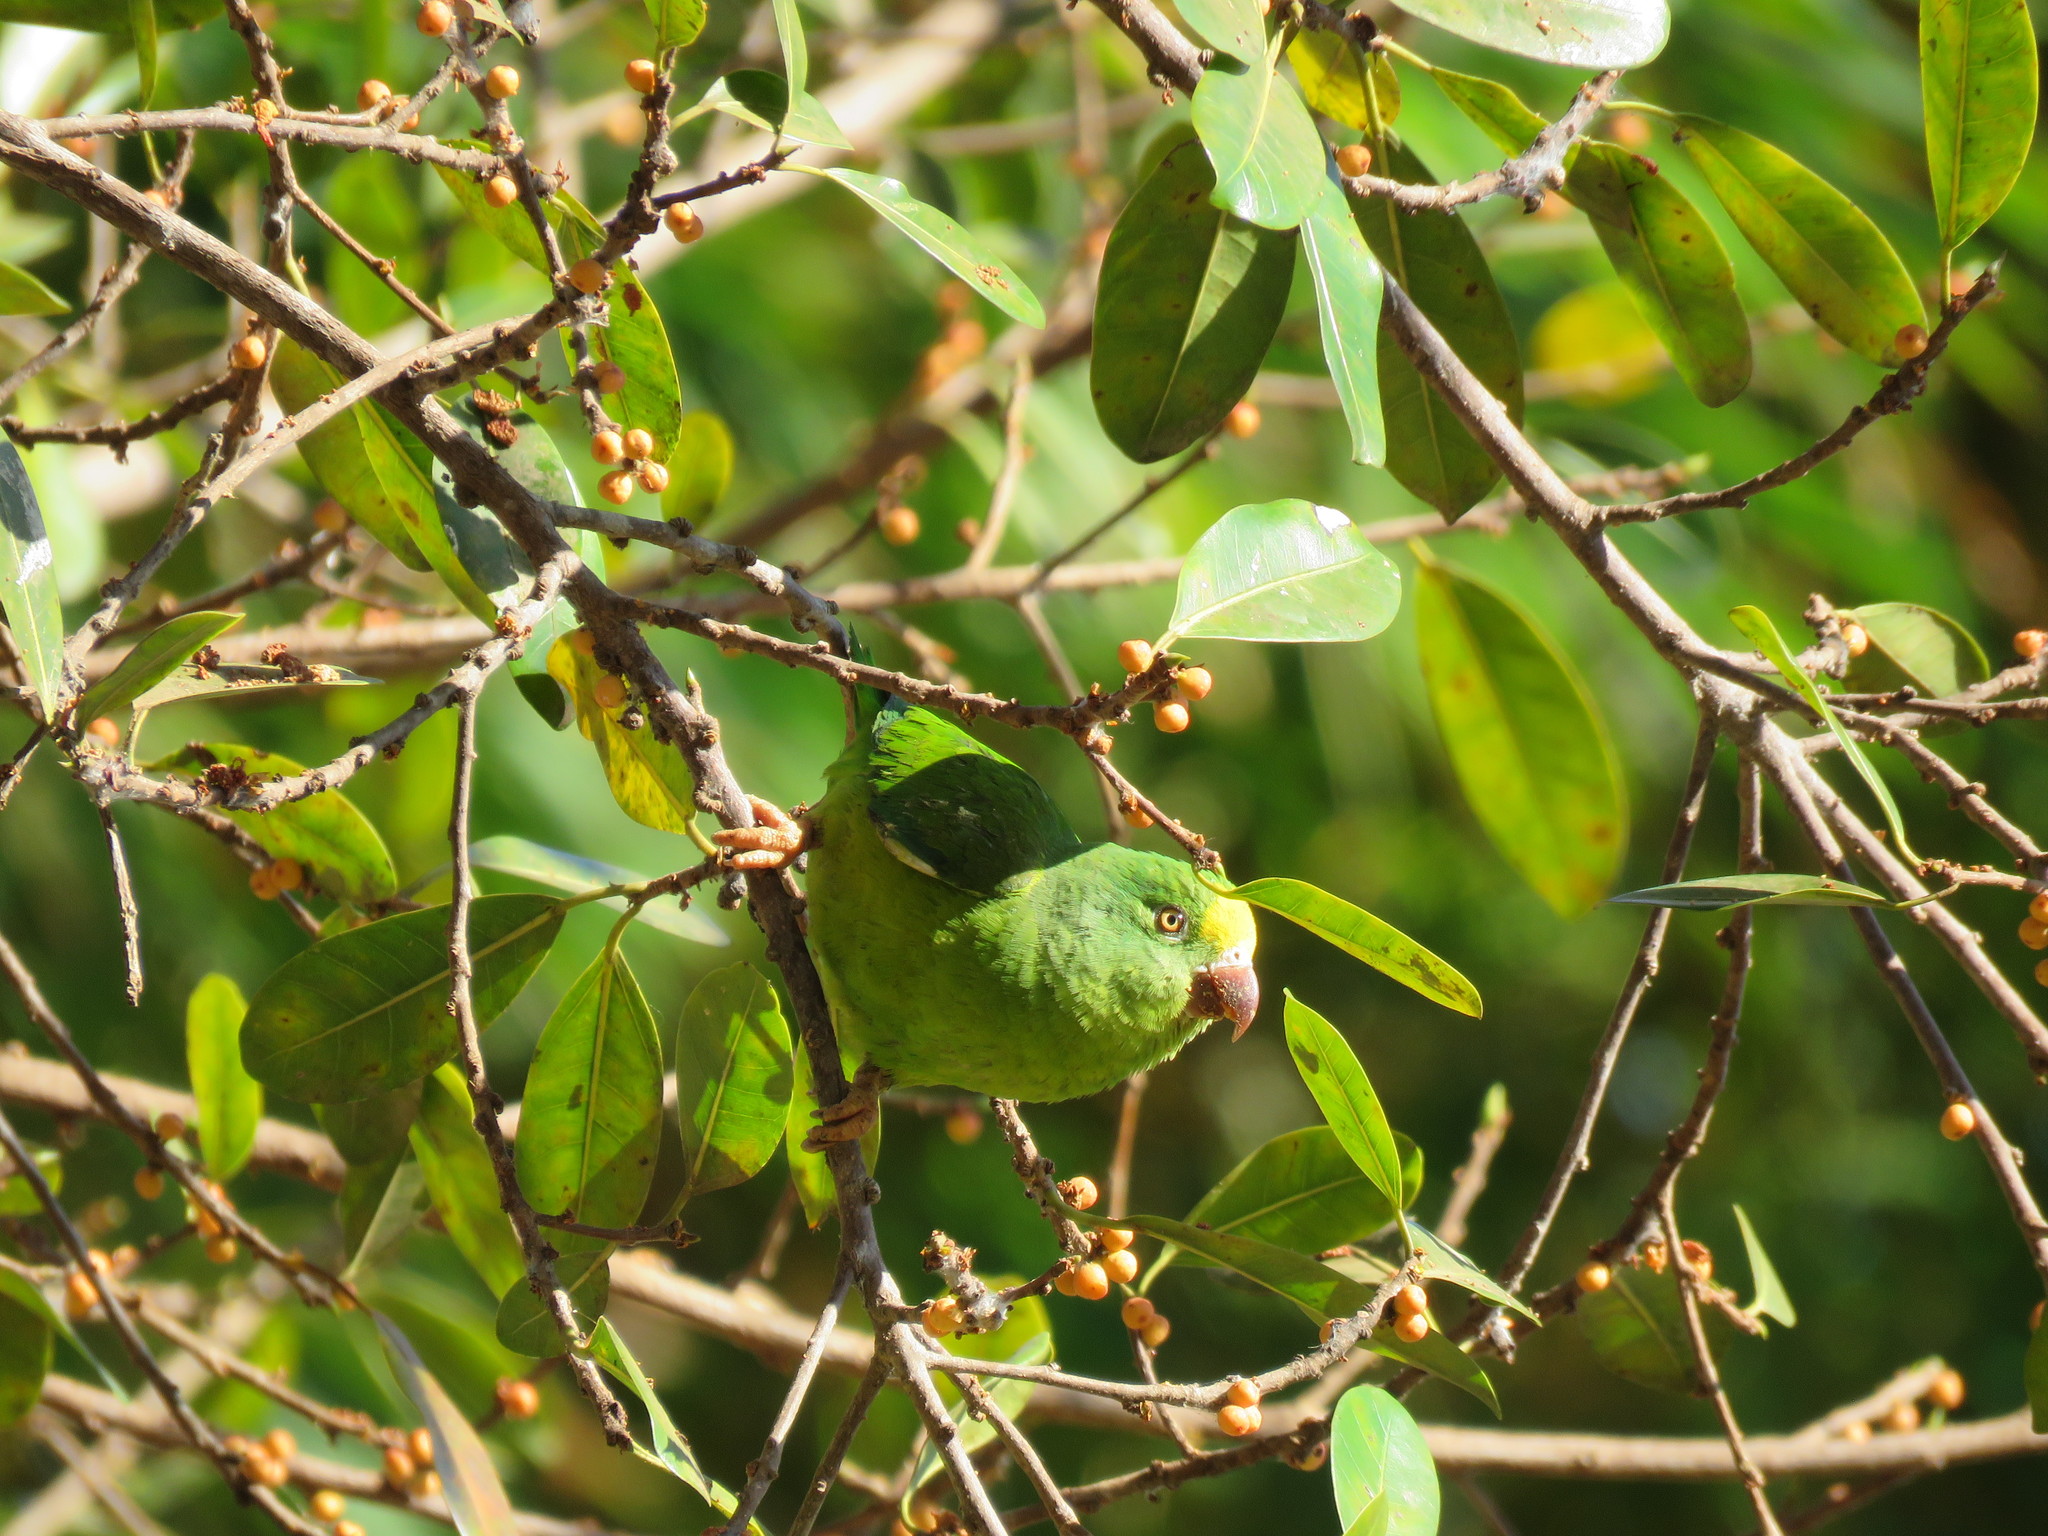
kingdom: Animalia
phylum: Chordata
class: Aves
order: Psittaciformes
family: Psittacidae
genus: Brotogeris
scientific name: Brotogeris sanctithomae
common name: Tui parakeet
